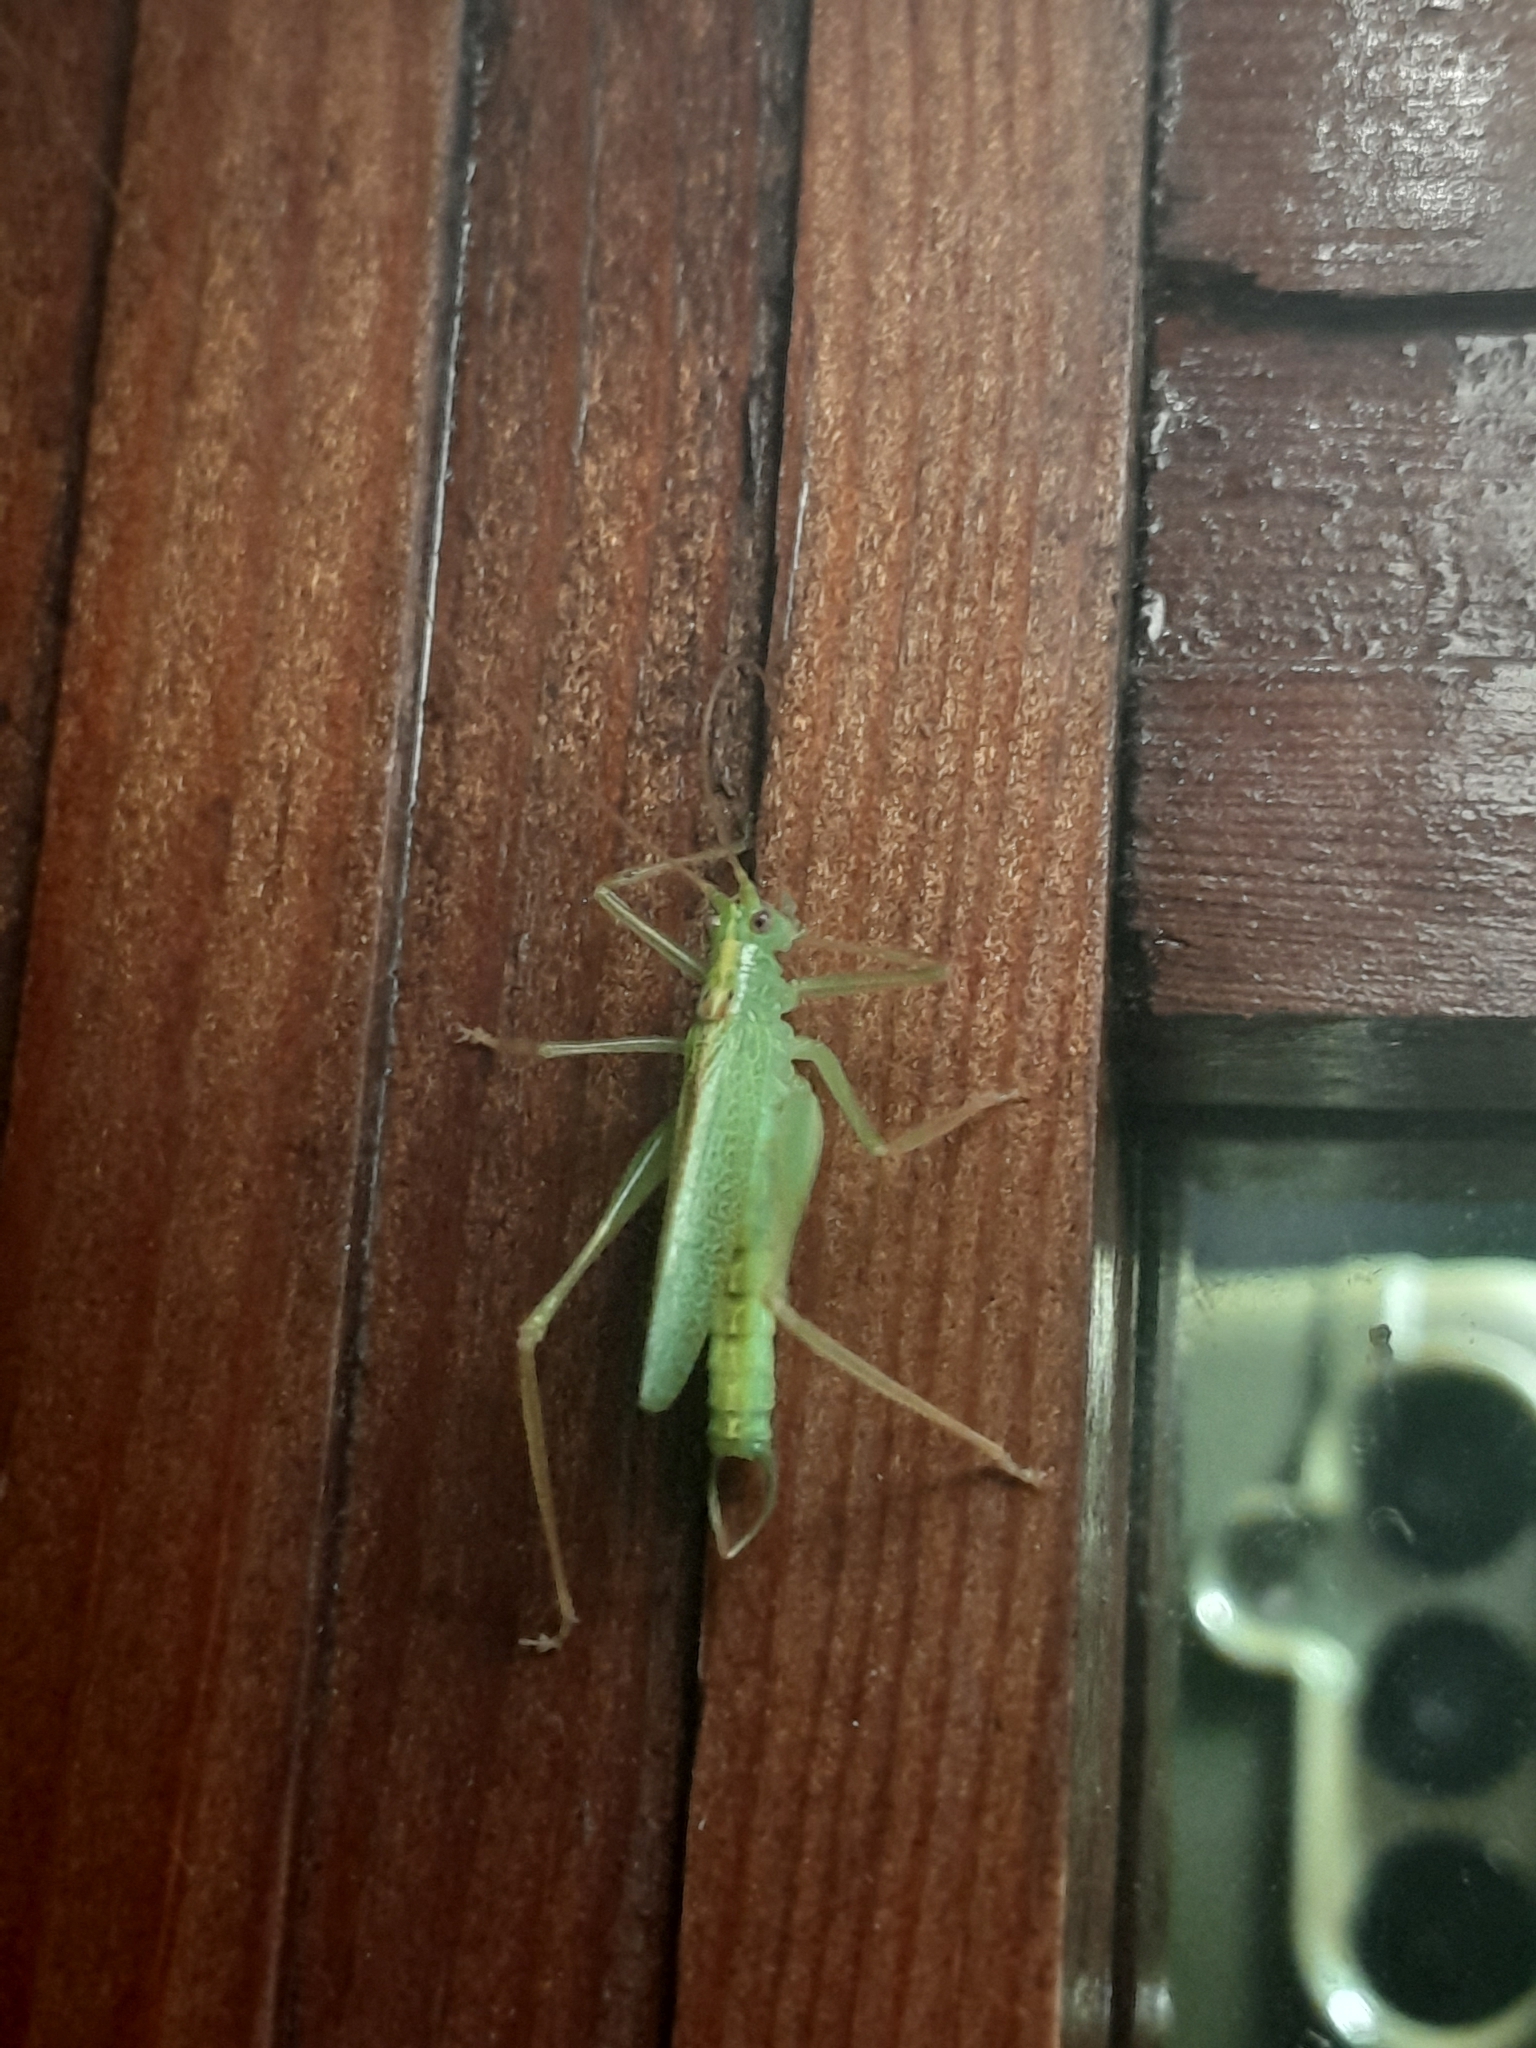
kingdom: Animalia
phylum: Arthropoda
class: Insecta
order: Orthoptera
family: Tettigoniidae
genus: Meconema
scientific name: Meconema thalassinum
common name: Oak bush-cricket
